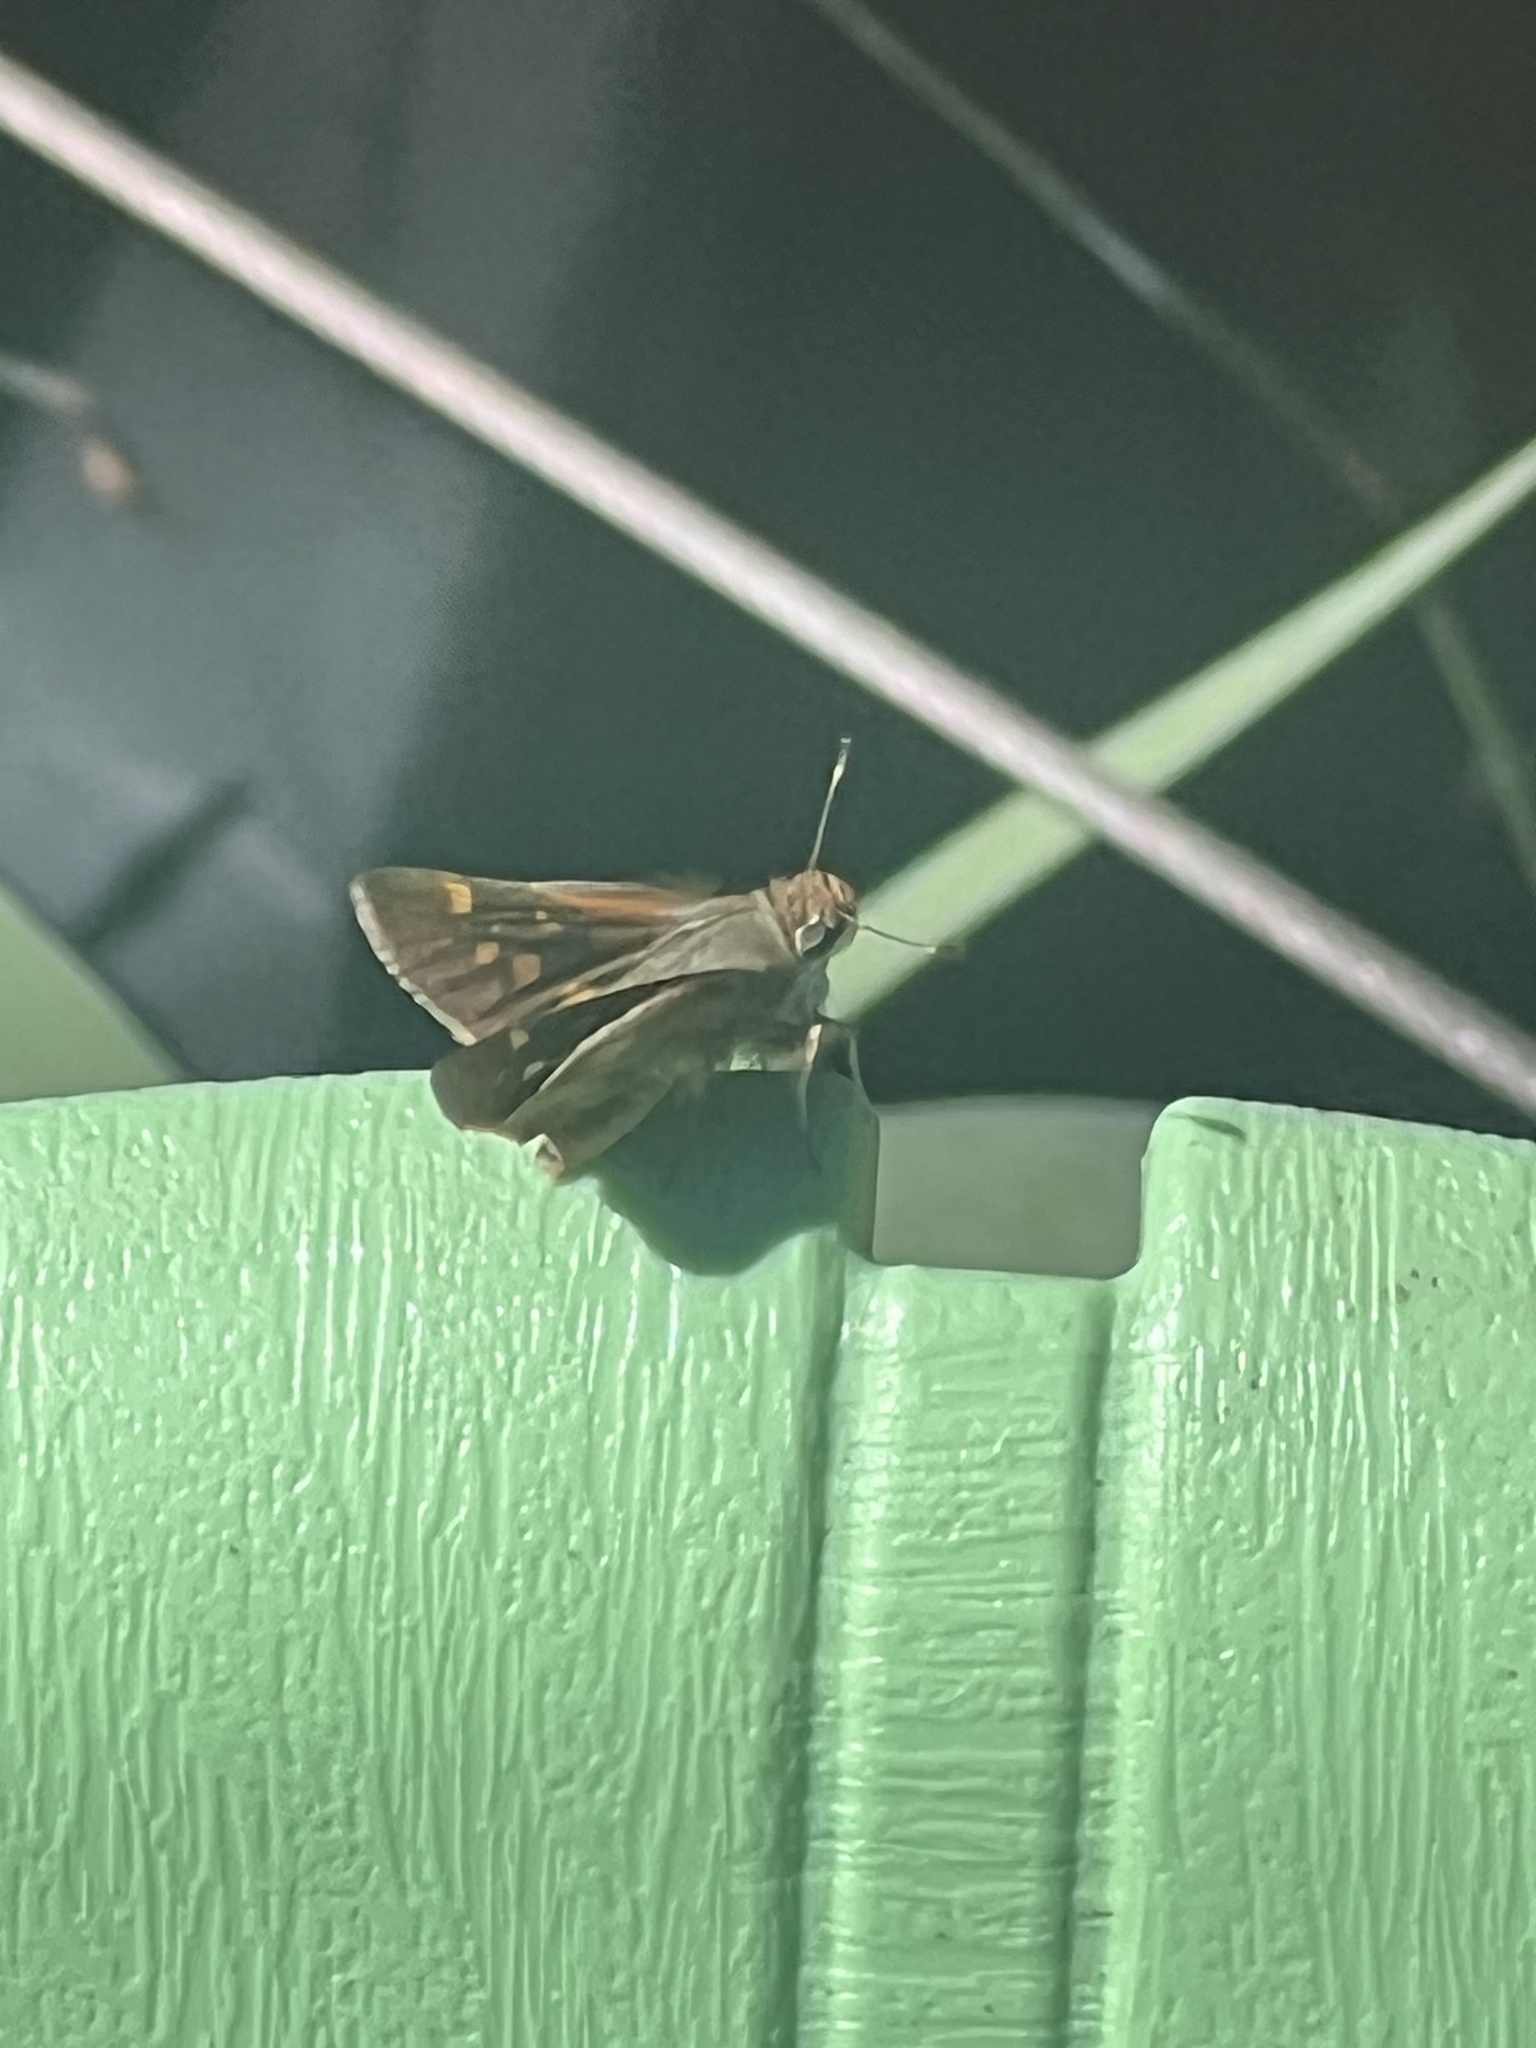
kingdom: Animalia
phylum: Arthropoda
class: Insecta
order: Lepidoptera
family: Hesperiidae
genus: Lon
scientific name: Lon melane
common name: Umber skipper
